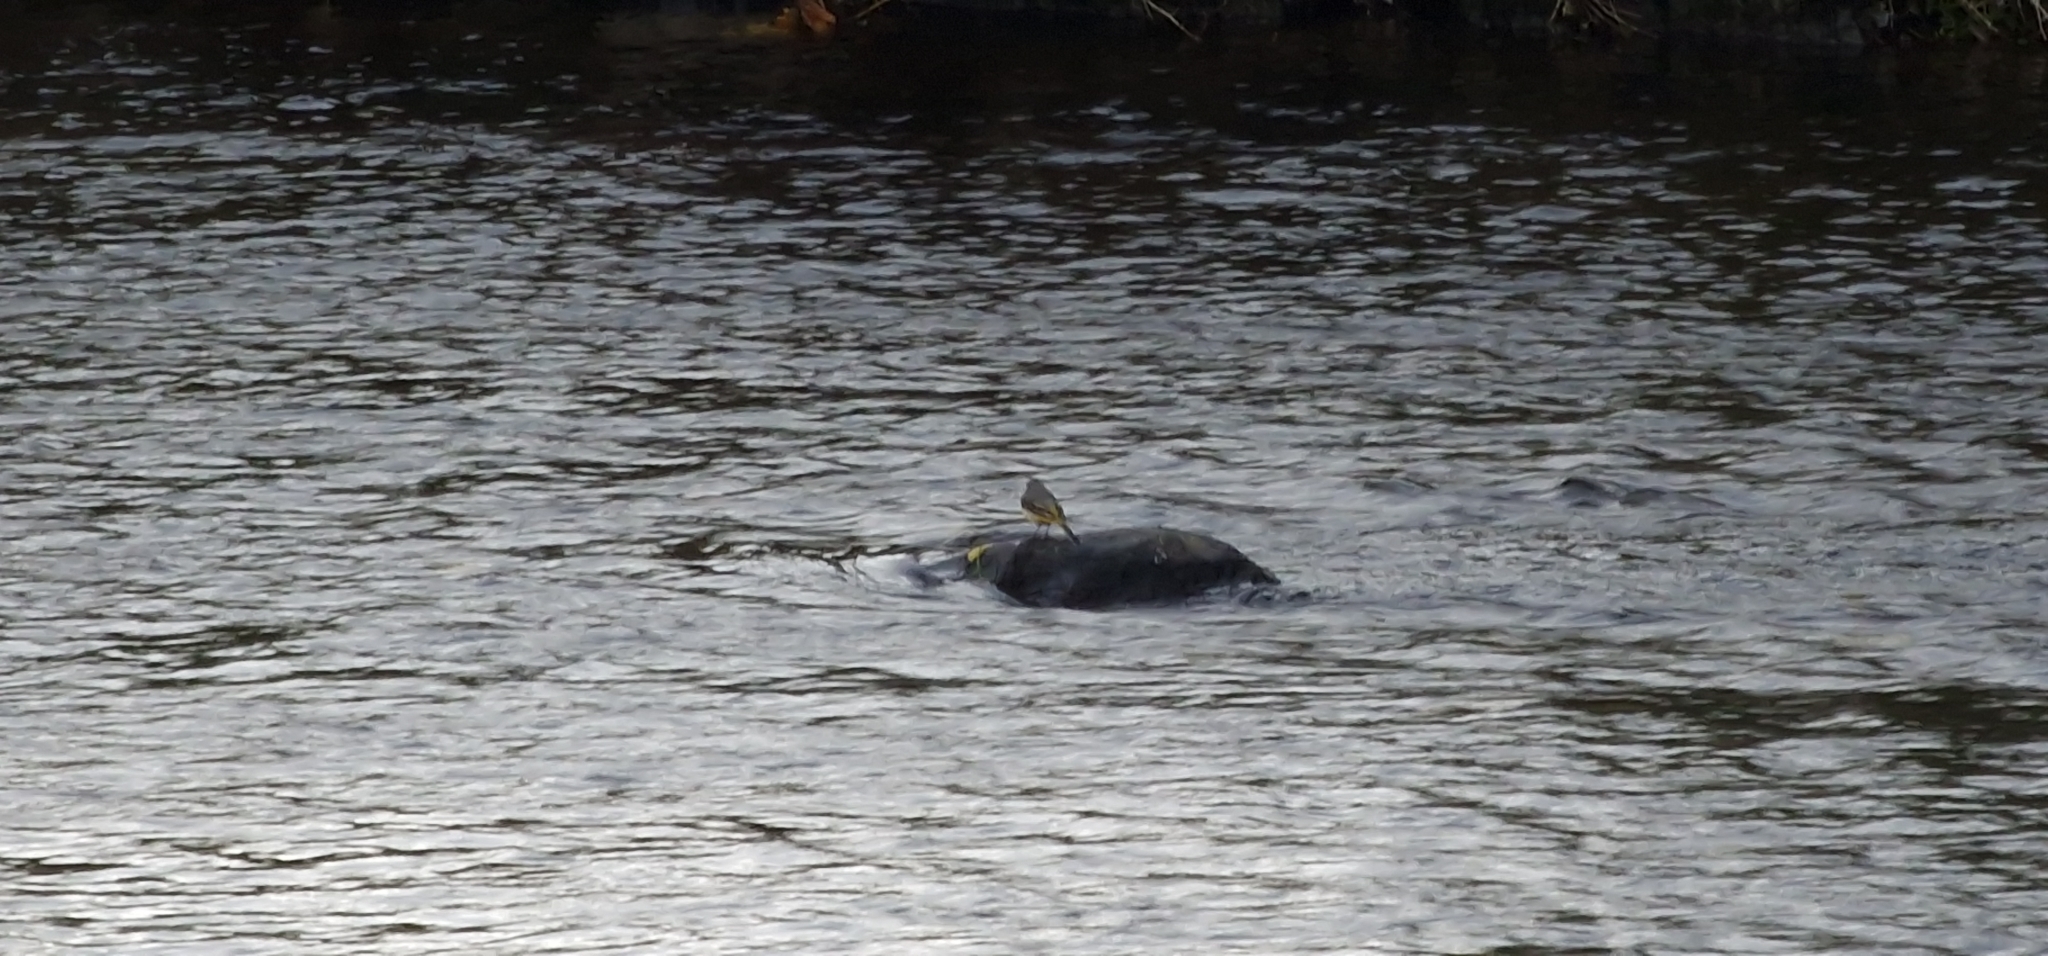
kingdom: Animalia
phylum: Chordata
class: Aves
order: Passeriformes
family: Motacillidae
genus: Motacilla
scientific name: Motacilla cinerea
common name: Grey wagtail
